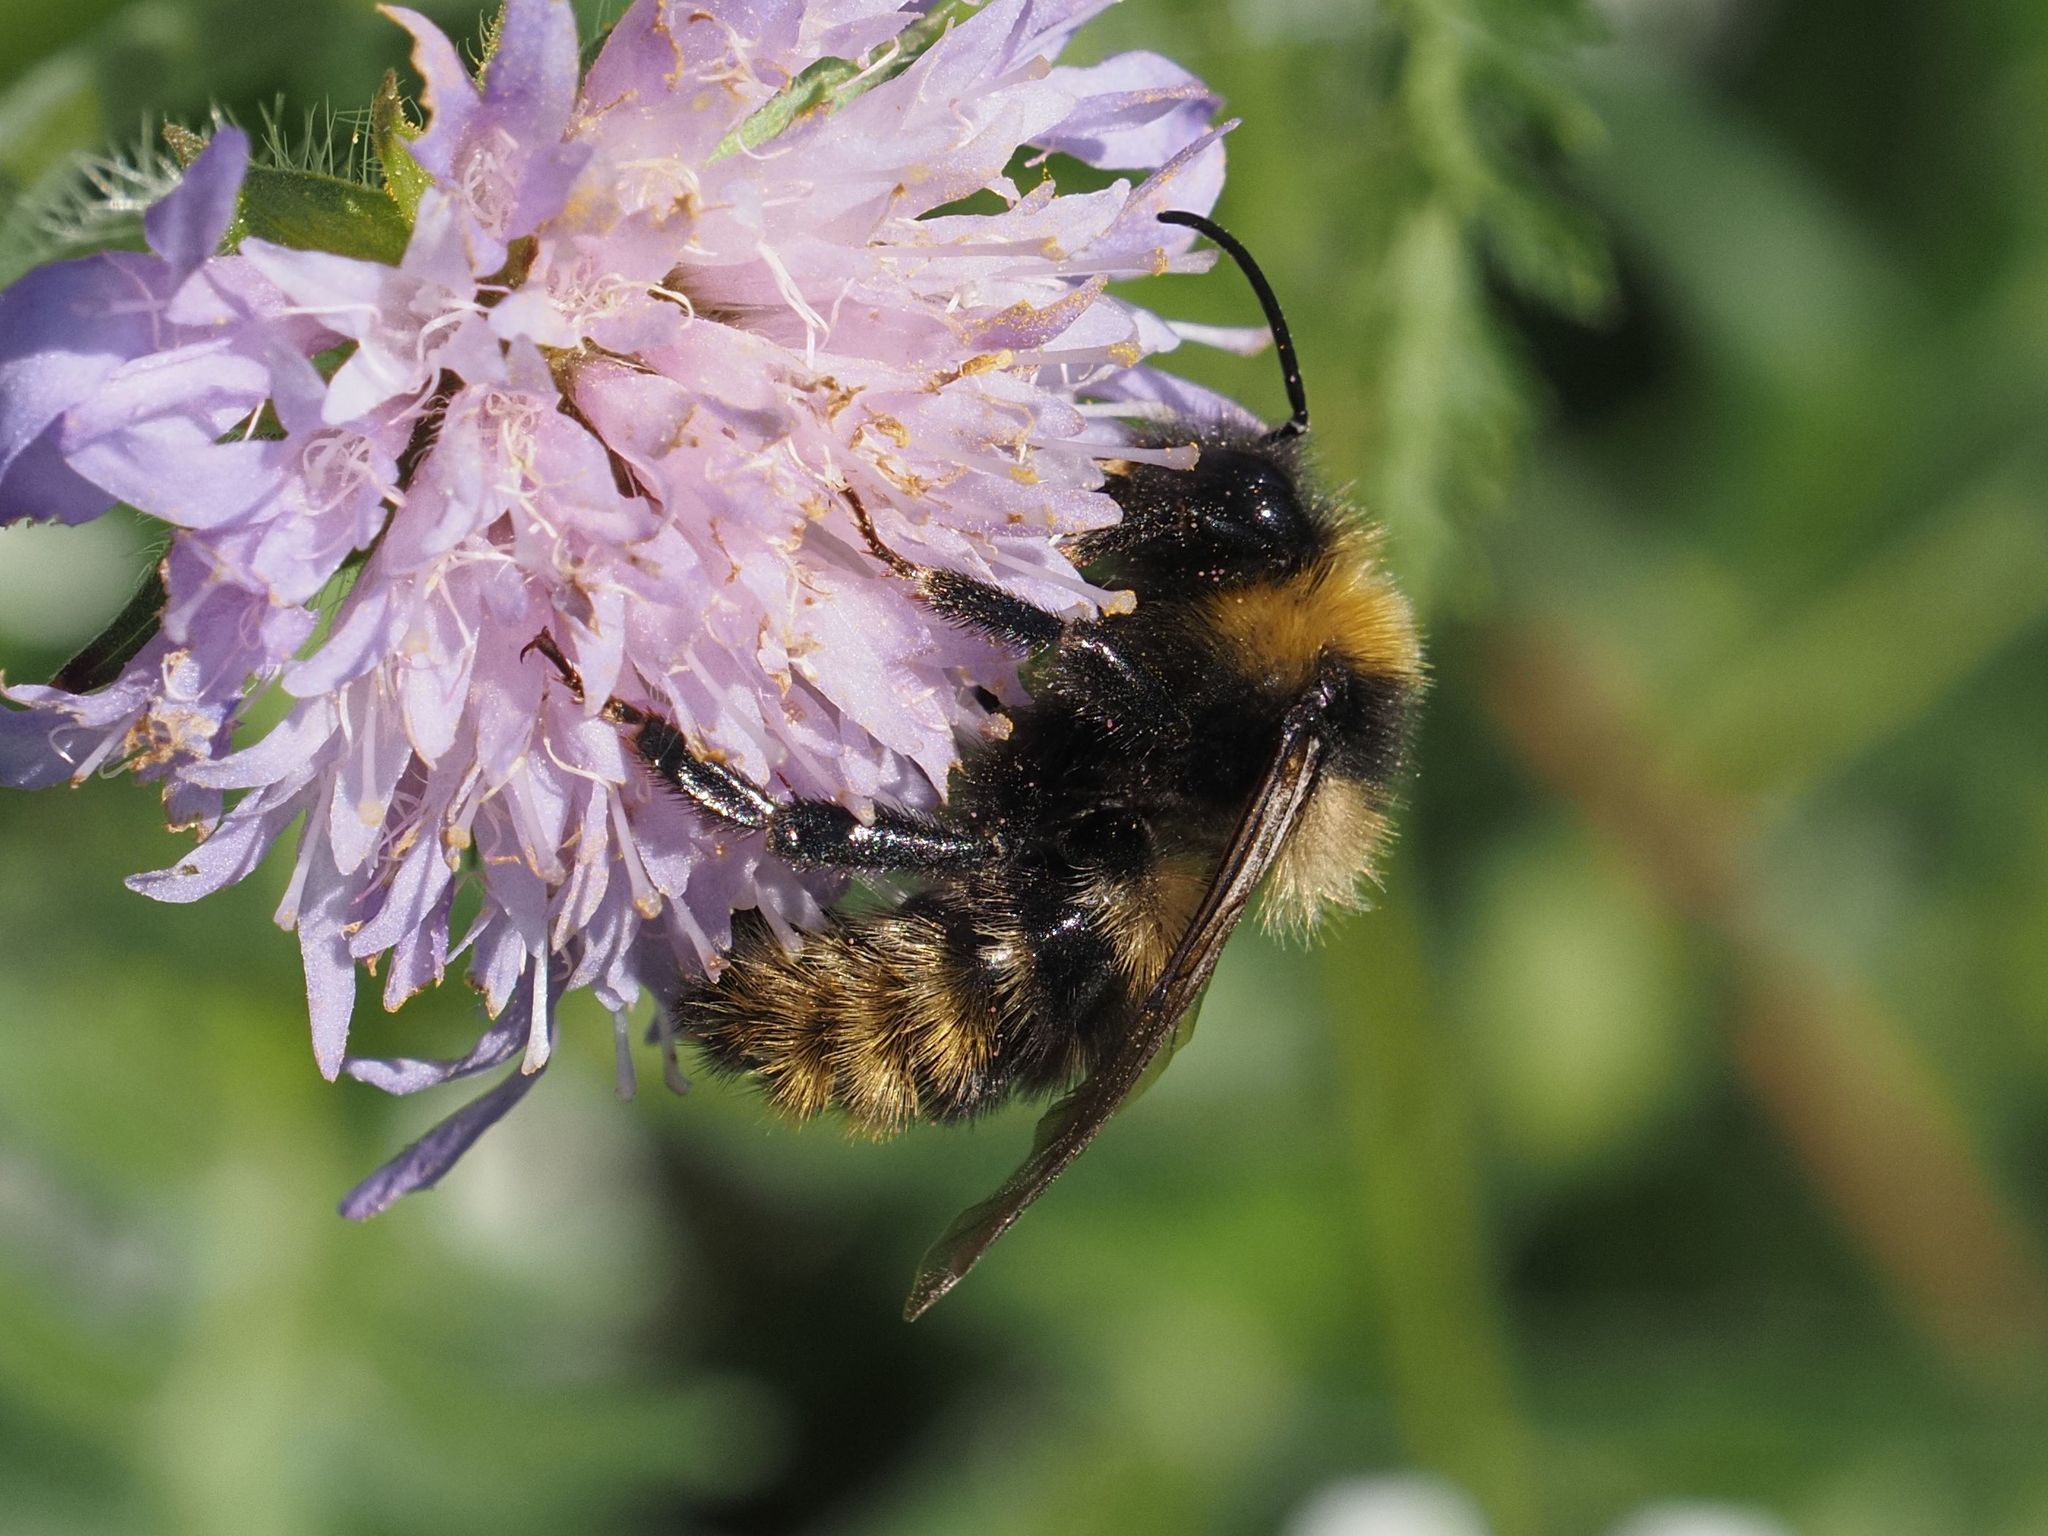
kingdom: Animalia
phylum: Arthropoda
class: Insecta
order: Hymenoptera
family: Apidae
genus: Bombus
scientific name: Bombus campestris
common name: Field cuckoo-bee
